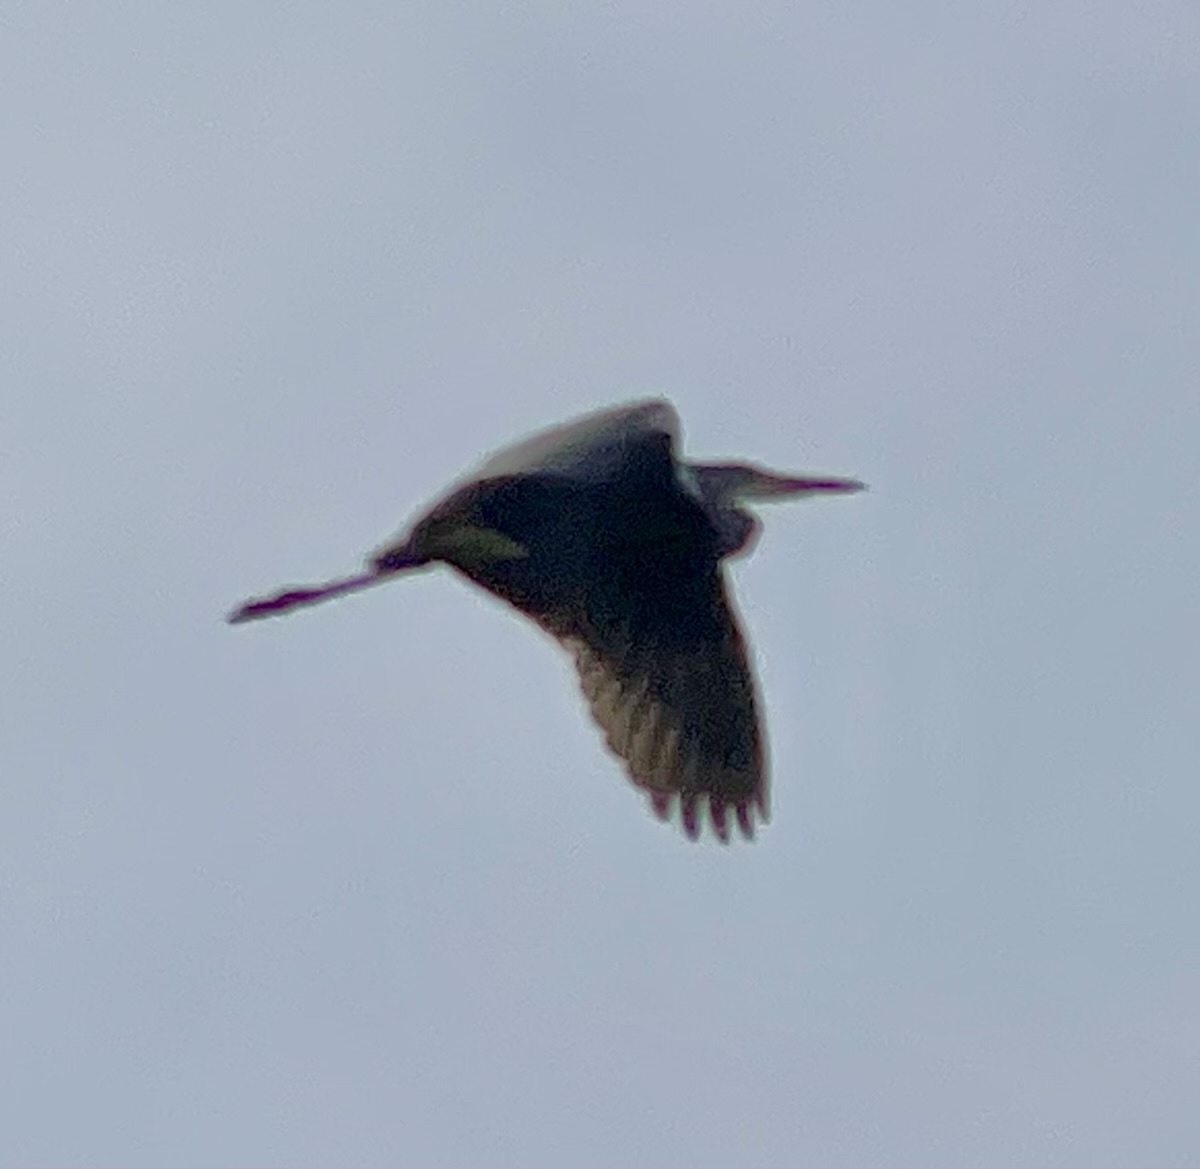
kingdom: Animalia
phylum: Chordata
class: Aves
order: Pelecaniformes
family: Ardeidae
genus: Ardea
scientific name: Ardea cinerea
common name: Grey heron
